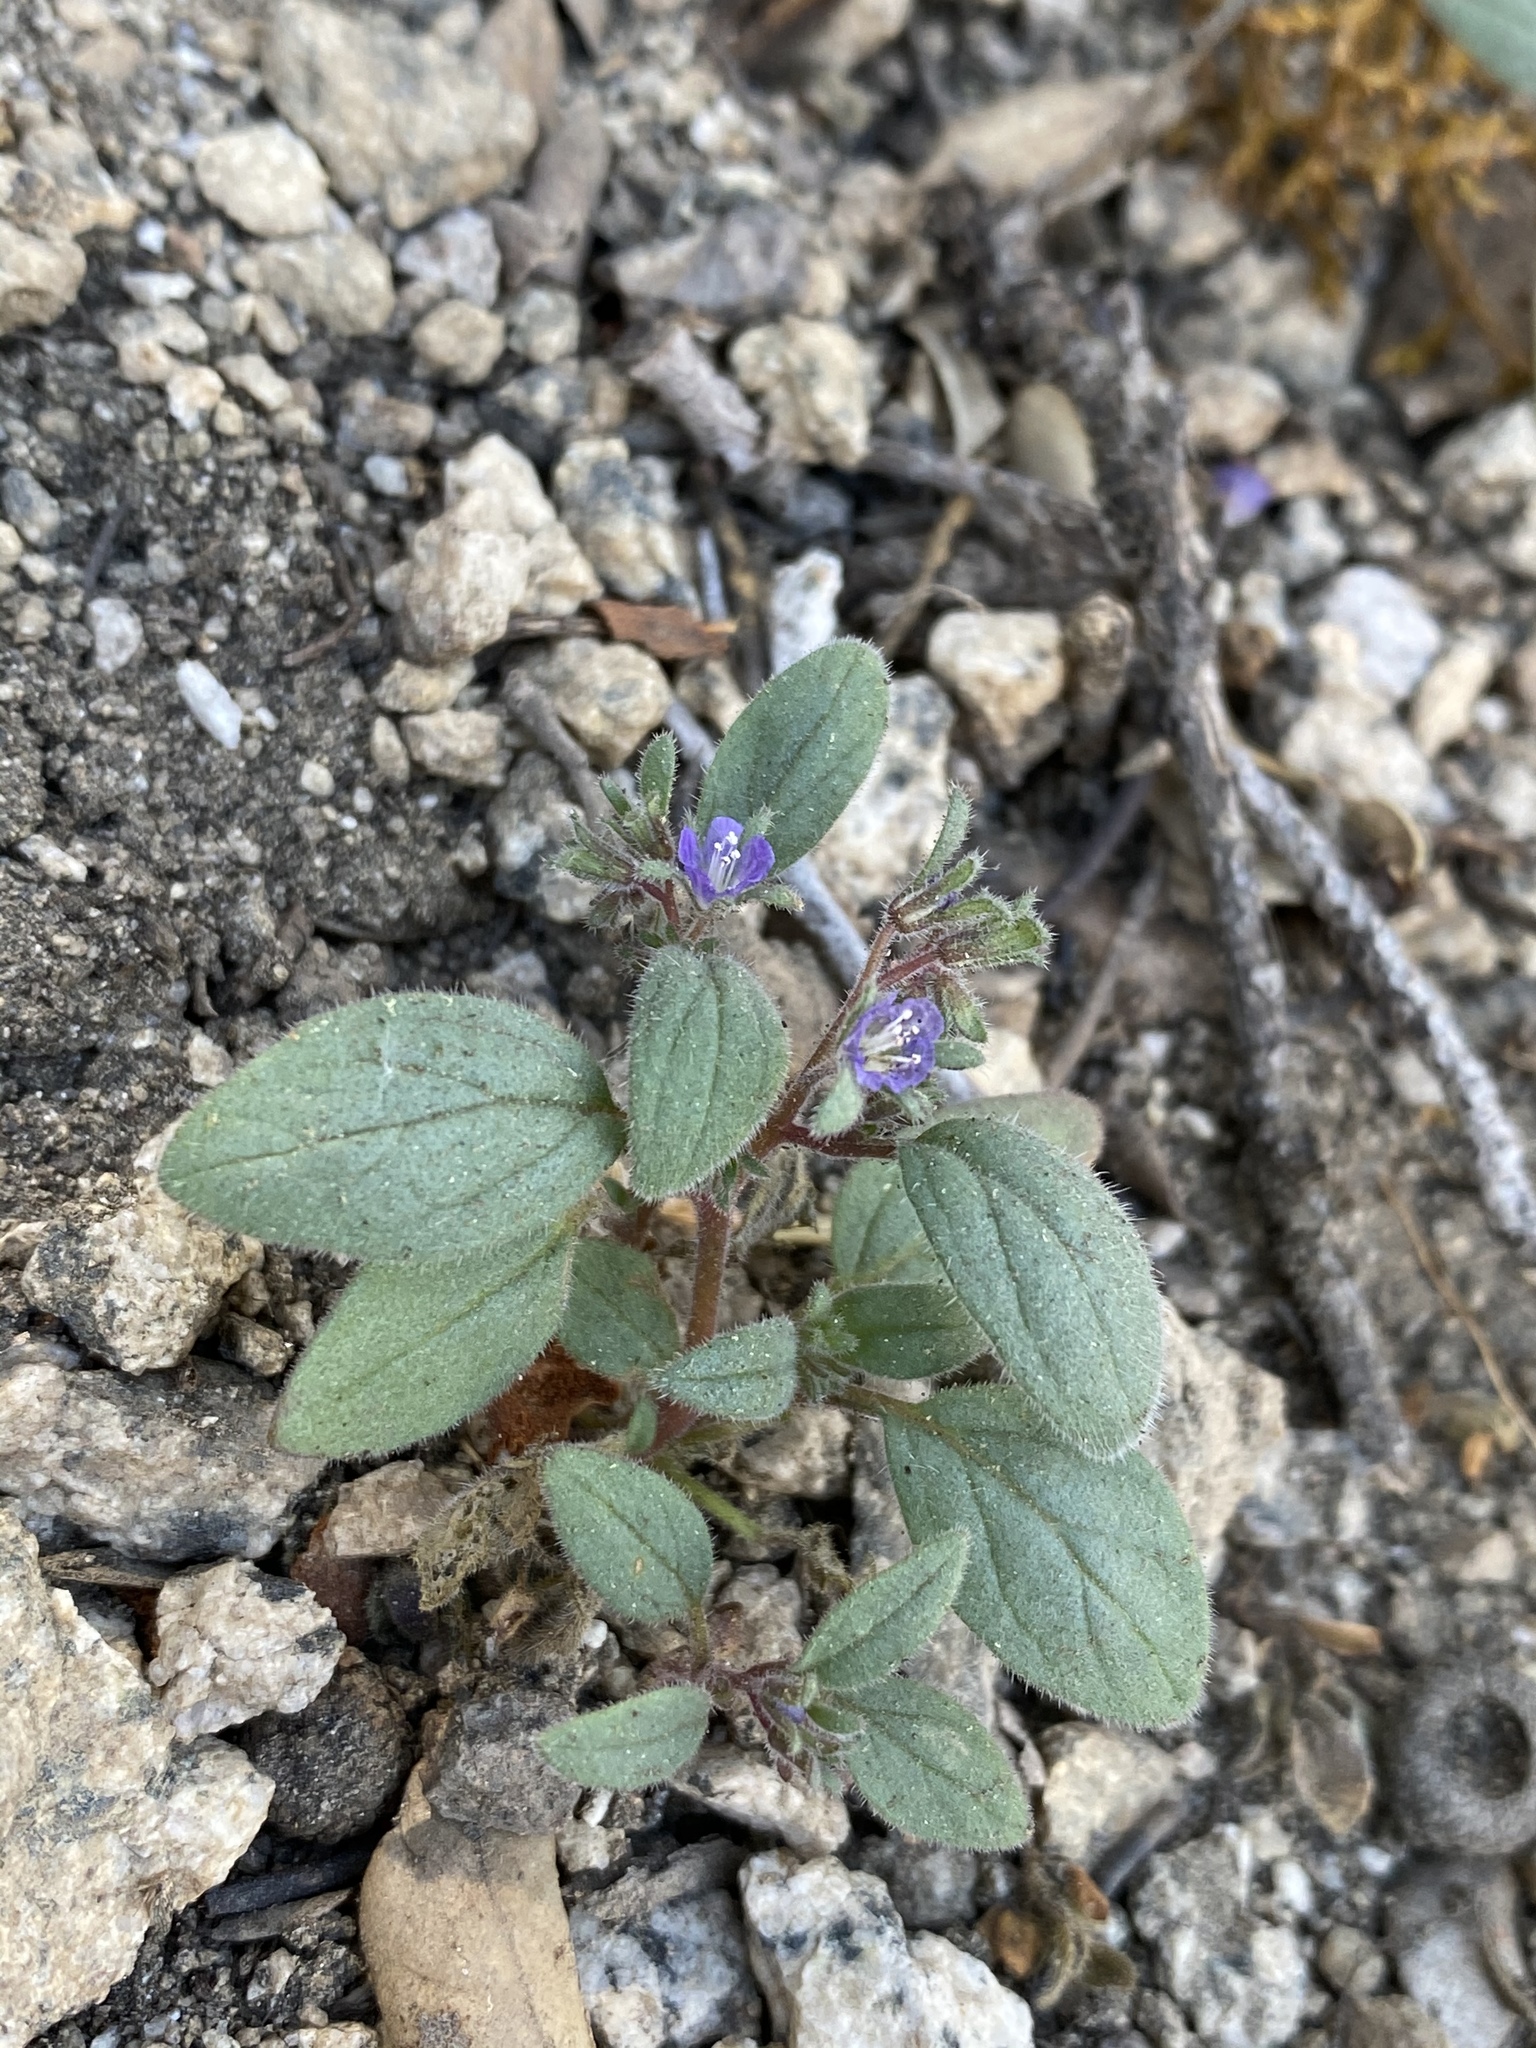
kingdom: Plantae
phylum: Tracheophyta
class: Magnoliopsida
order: Boraginales
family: Hydrophyllaceae
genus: Phacelia
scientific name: Phacelia austromontana
